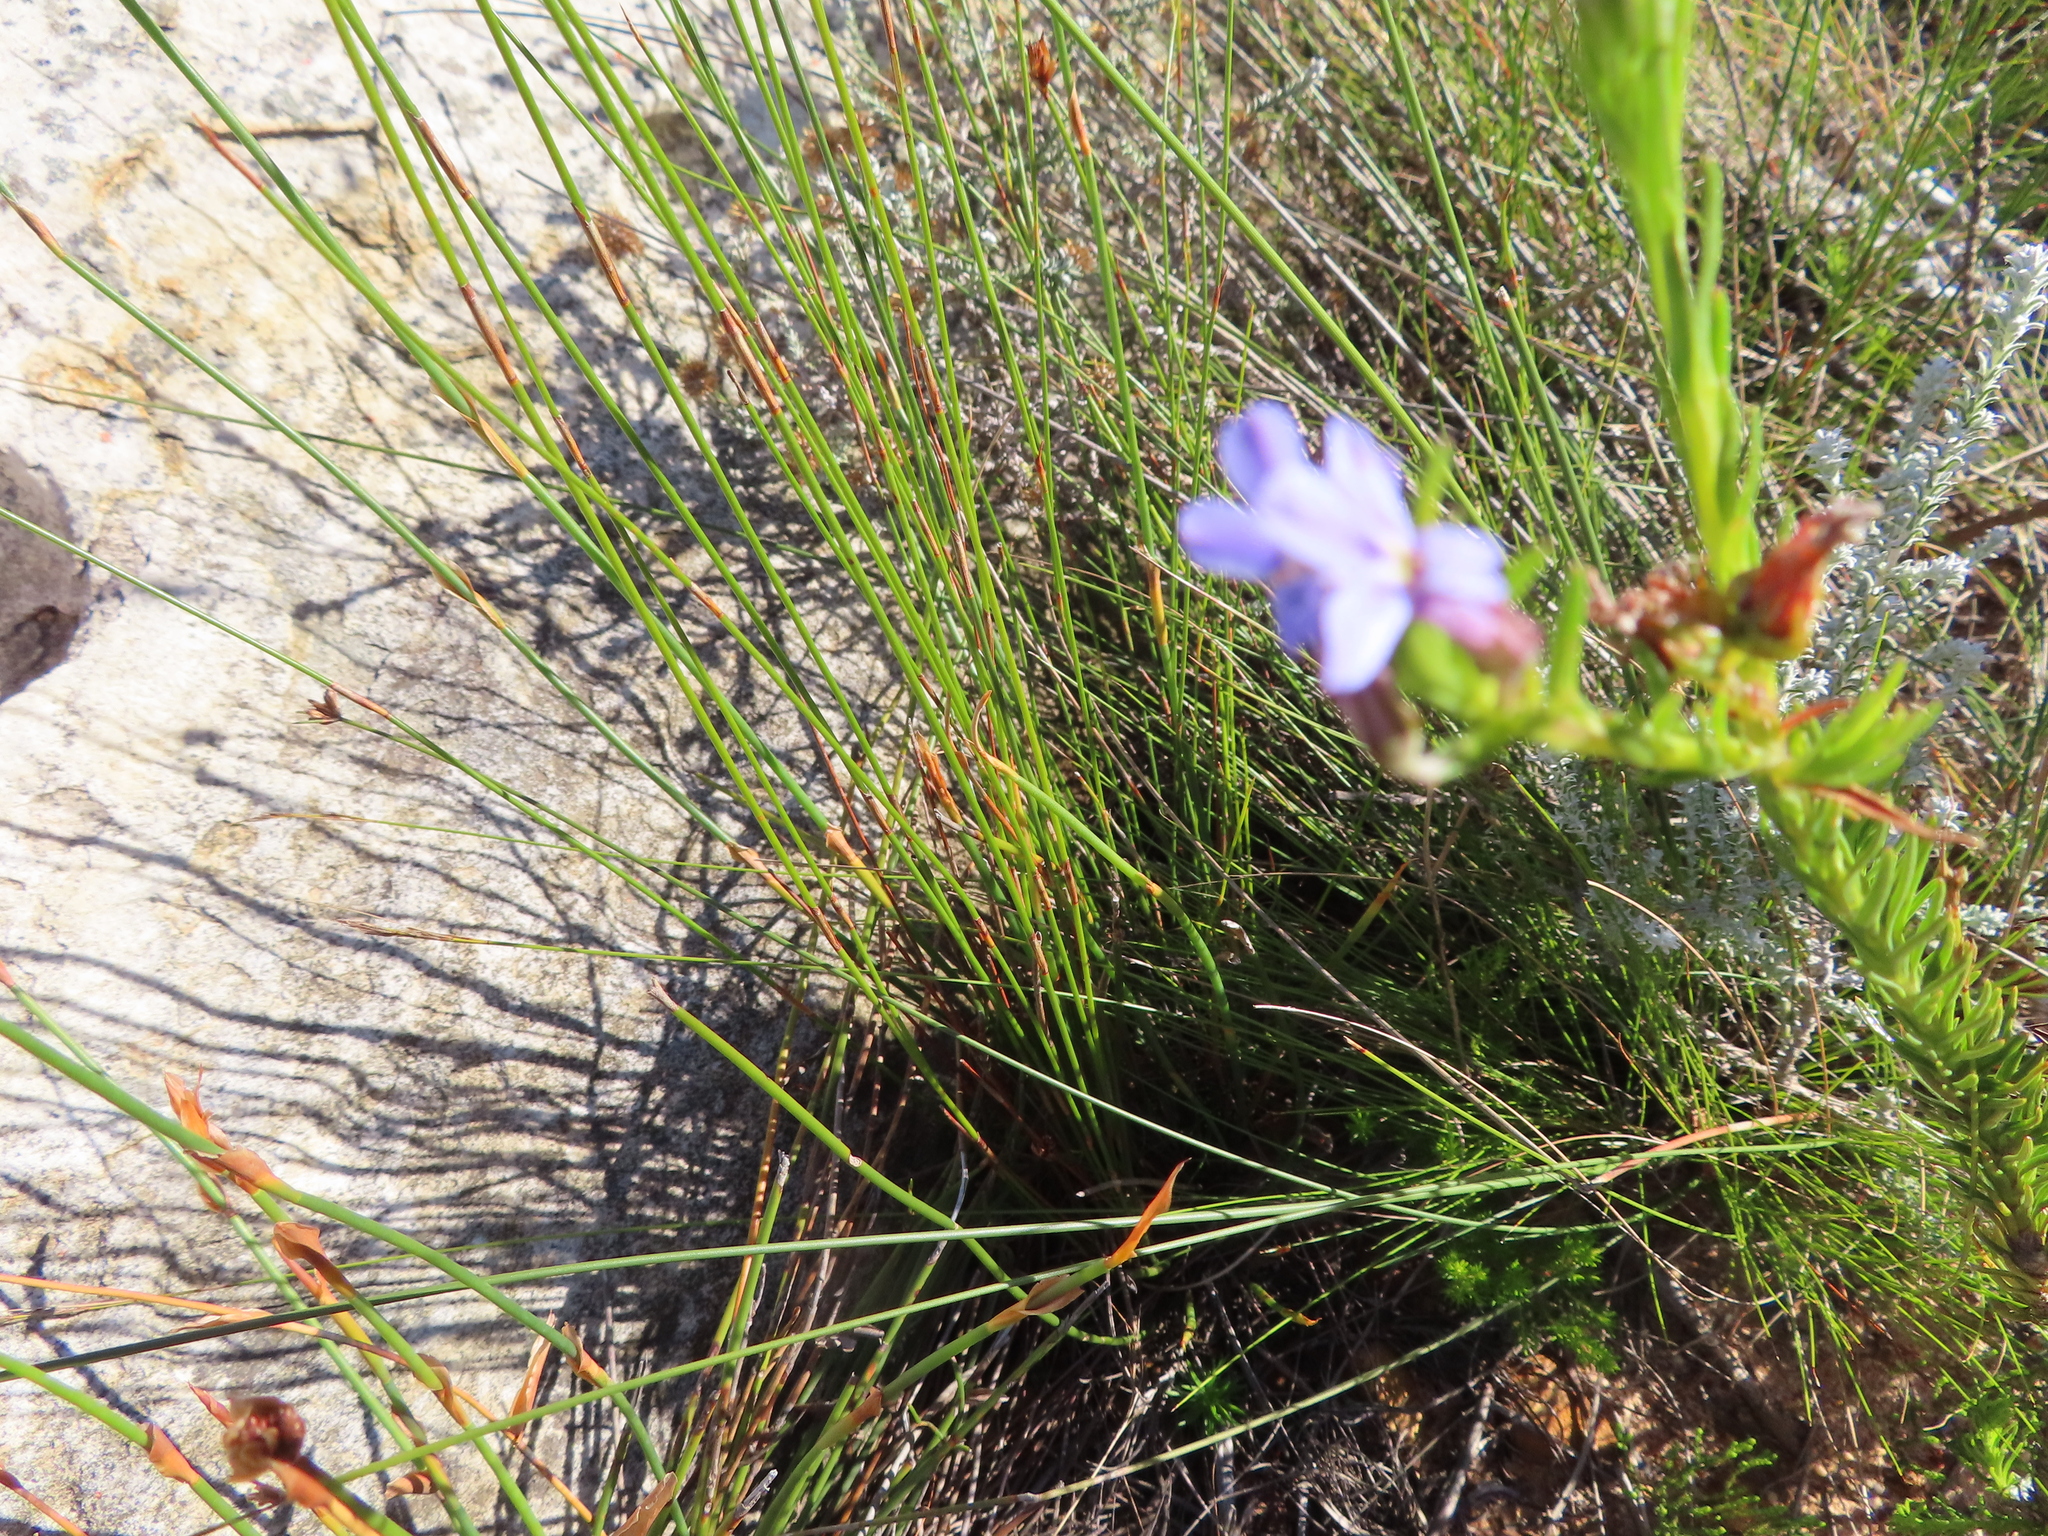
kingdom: Plantae
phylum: Tracheophyta
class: Magnoliopsida
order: Asterales
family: Campanulaceae
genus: Lobelia
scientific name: Lobelia pinifolia
